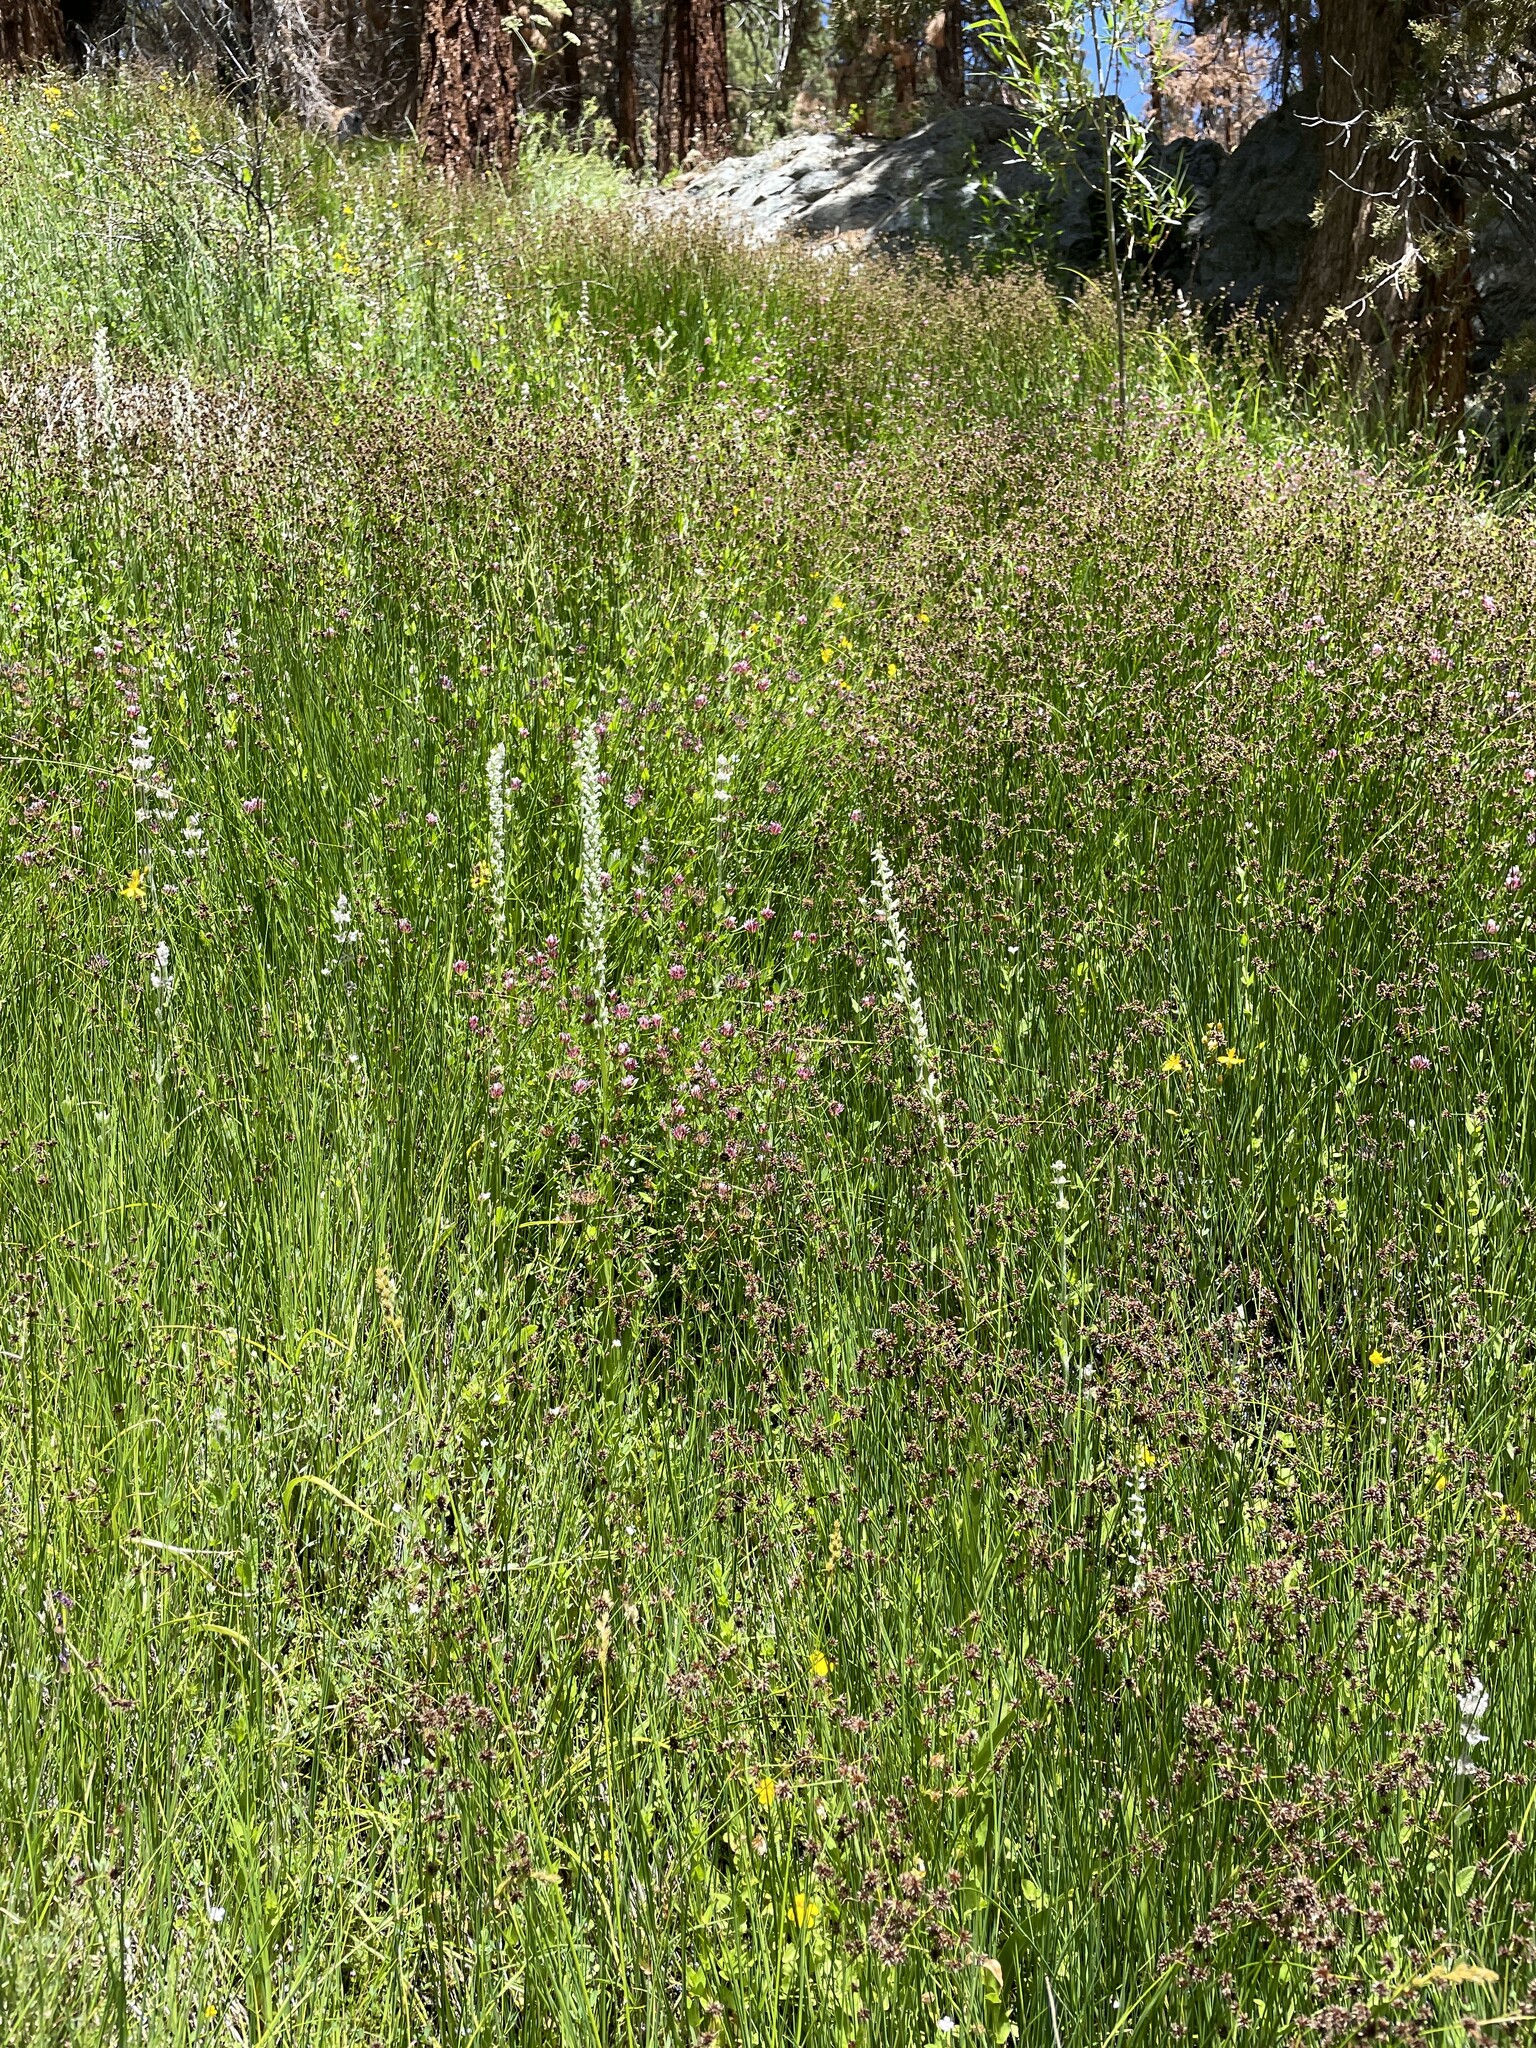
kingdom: Plantae
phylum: Tracheophyta
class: Liliopsida
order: Asparagales
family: Orchidaceae
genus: Platanthera
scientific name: Platanthera dilatata
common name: Bog candles
